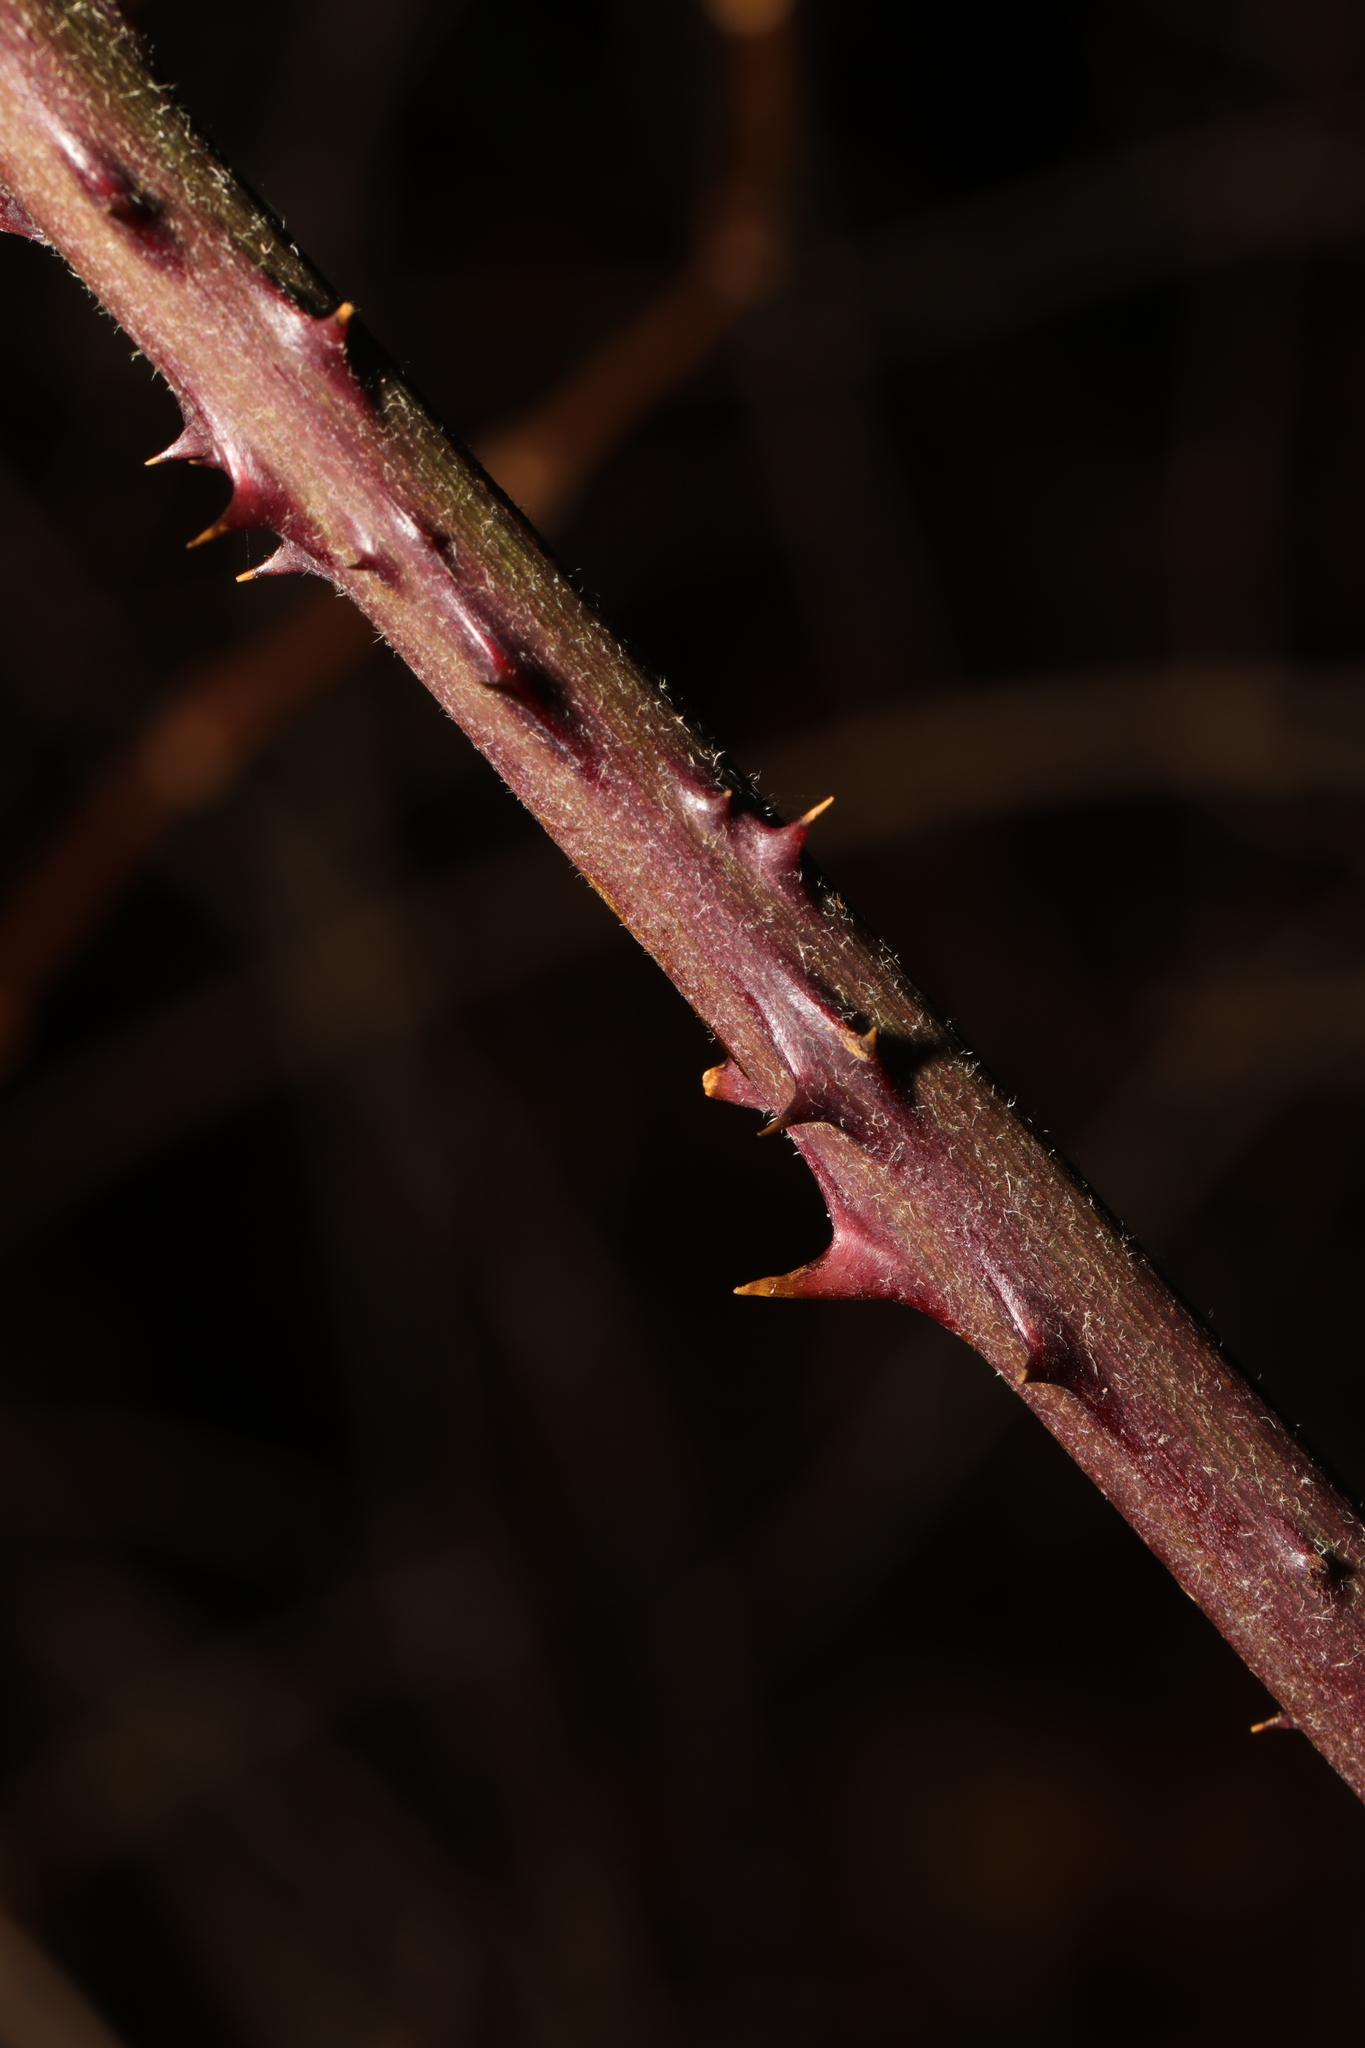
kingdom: Plantae
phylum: Tracheophyta
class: Magnoliopsida
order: Rosales
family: Rosaceae
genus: Rubus
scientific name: Rubus vestitus
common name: European blackberry
